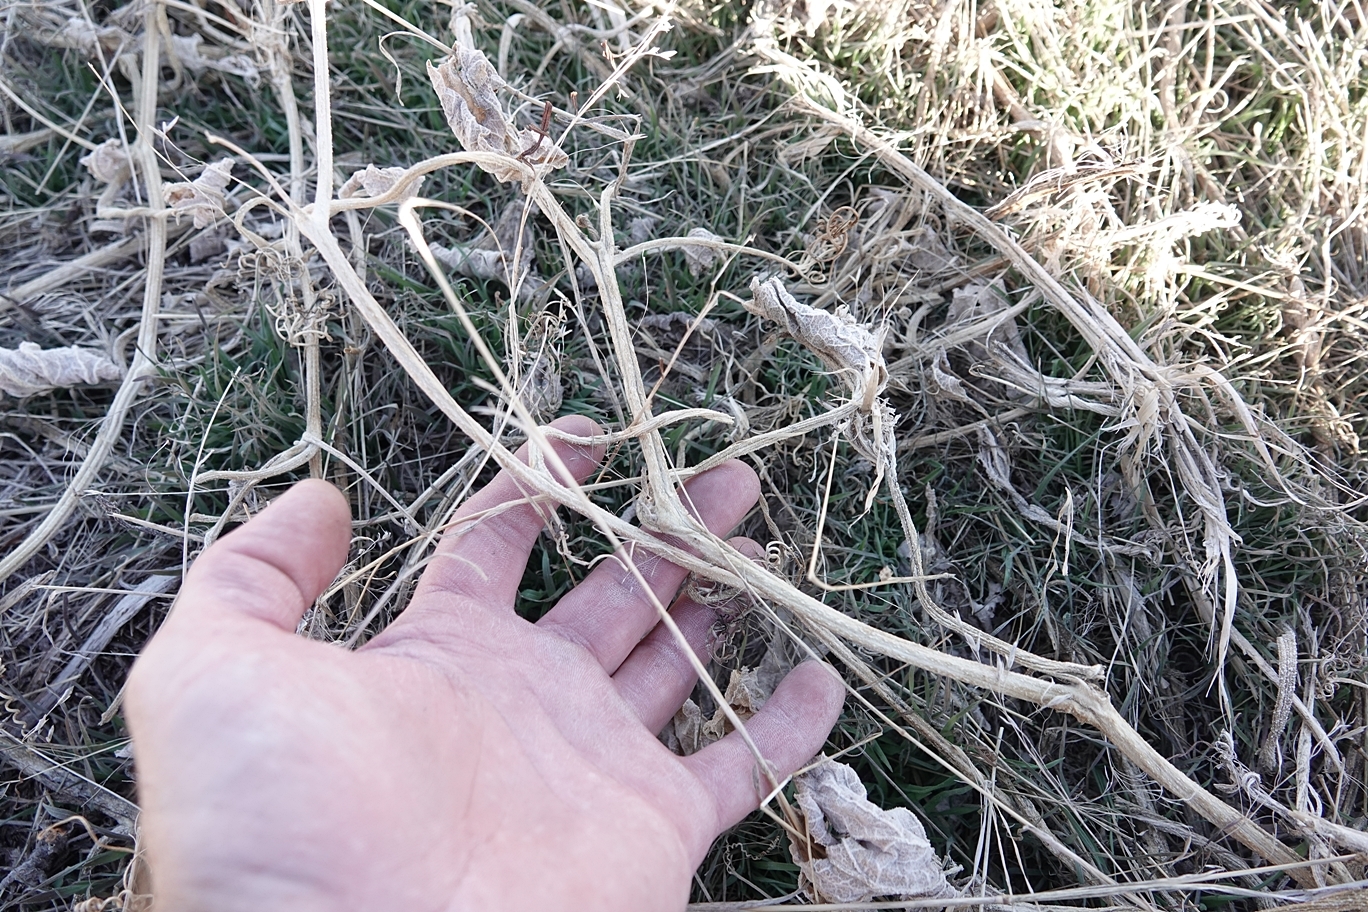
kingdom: Plantae
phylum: Tracheophyta
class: Magnoliopsida
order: Cucurbitales
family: Cucurbitaceae
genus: Cucurbita
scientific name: Cucurbita foetidissima
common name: Buffalo gourd
